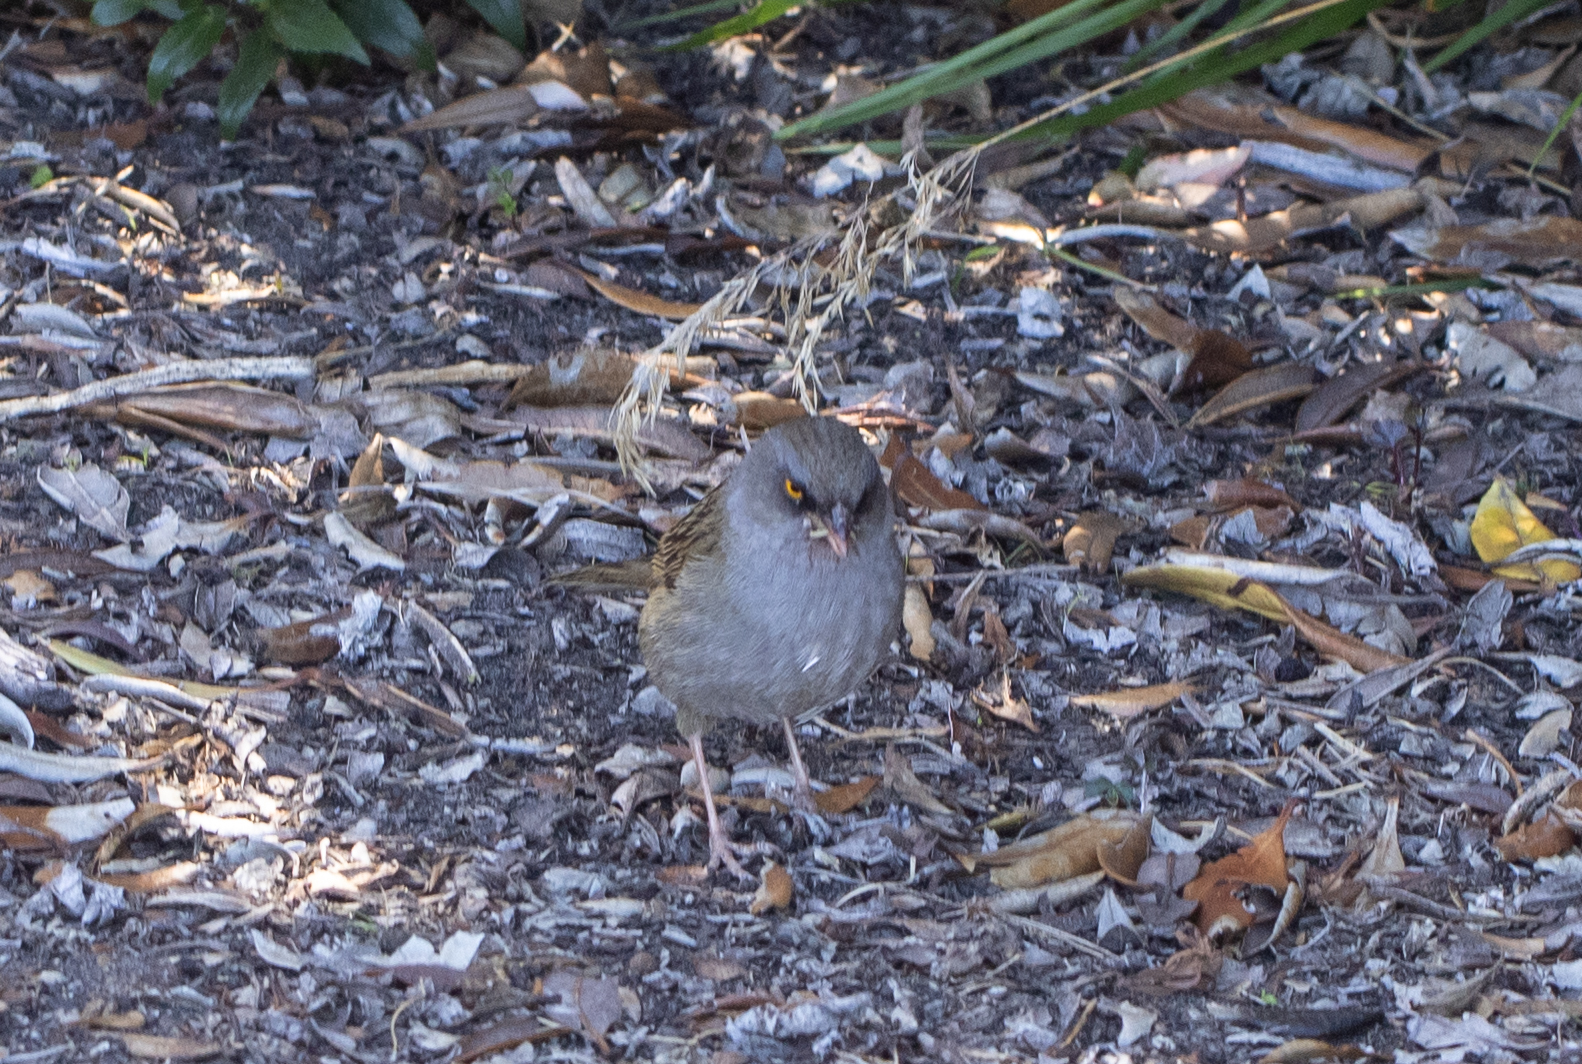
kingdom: Animalia
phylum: Chordata
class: Aves
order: Passeriformes
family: Passerellidae
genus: Junco
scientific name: Junco vulcani
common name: Volcano junco
